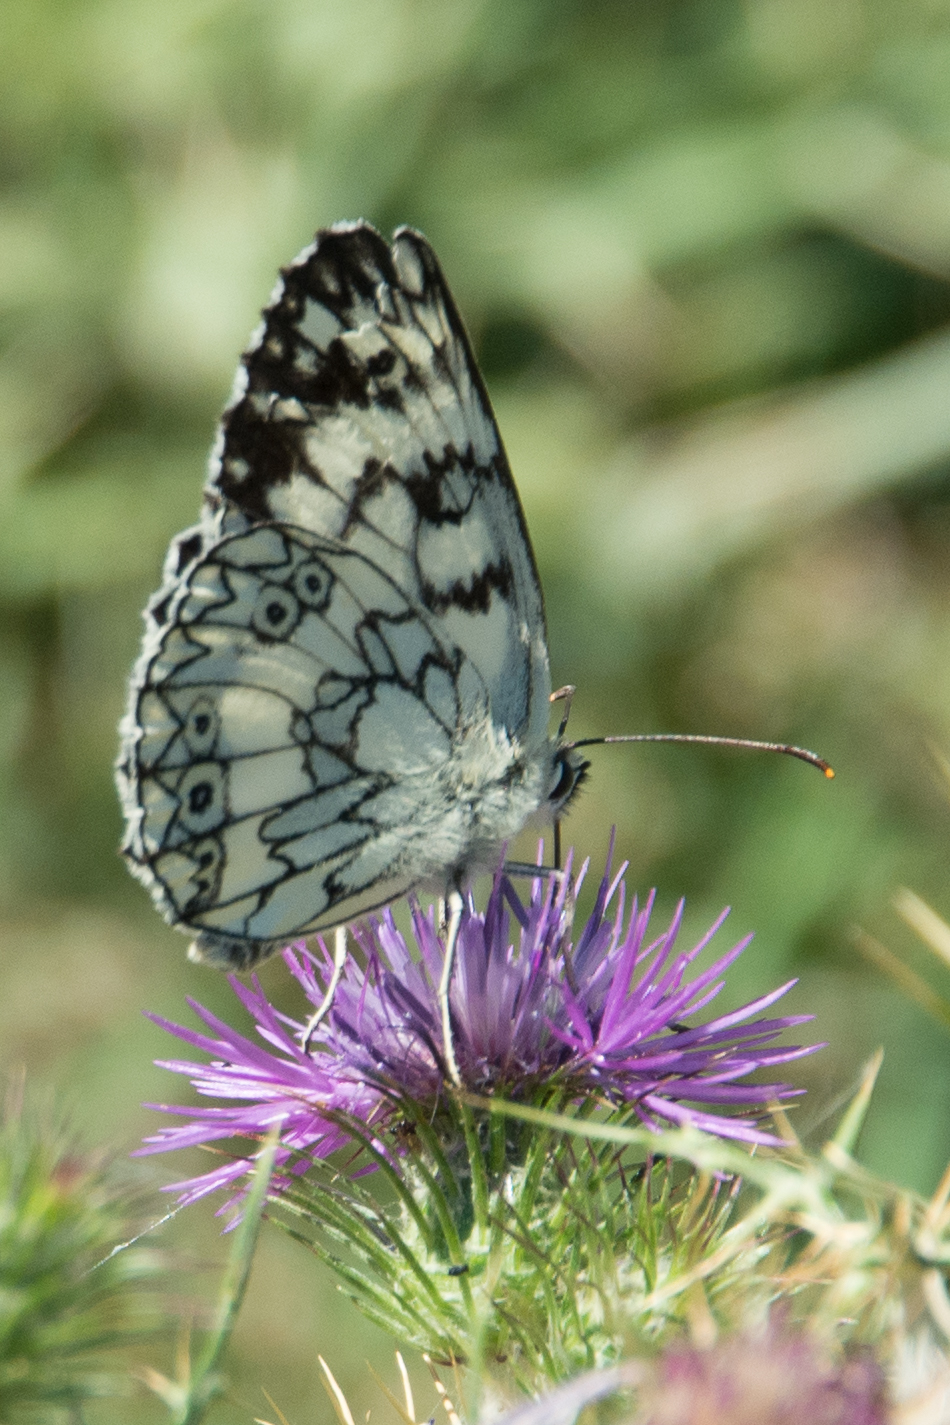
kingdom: Animalia
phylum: Arthropoda
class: Insecta
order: Lepidoptera
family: Nymphalidae
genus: Melanargia
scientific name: Melanargia japygia
